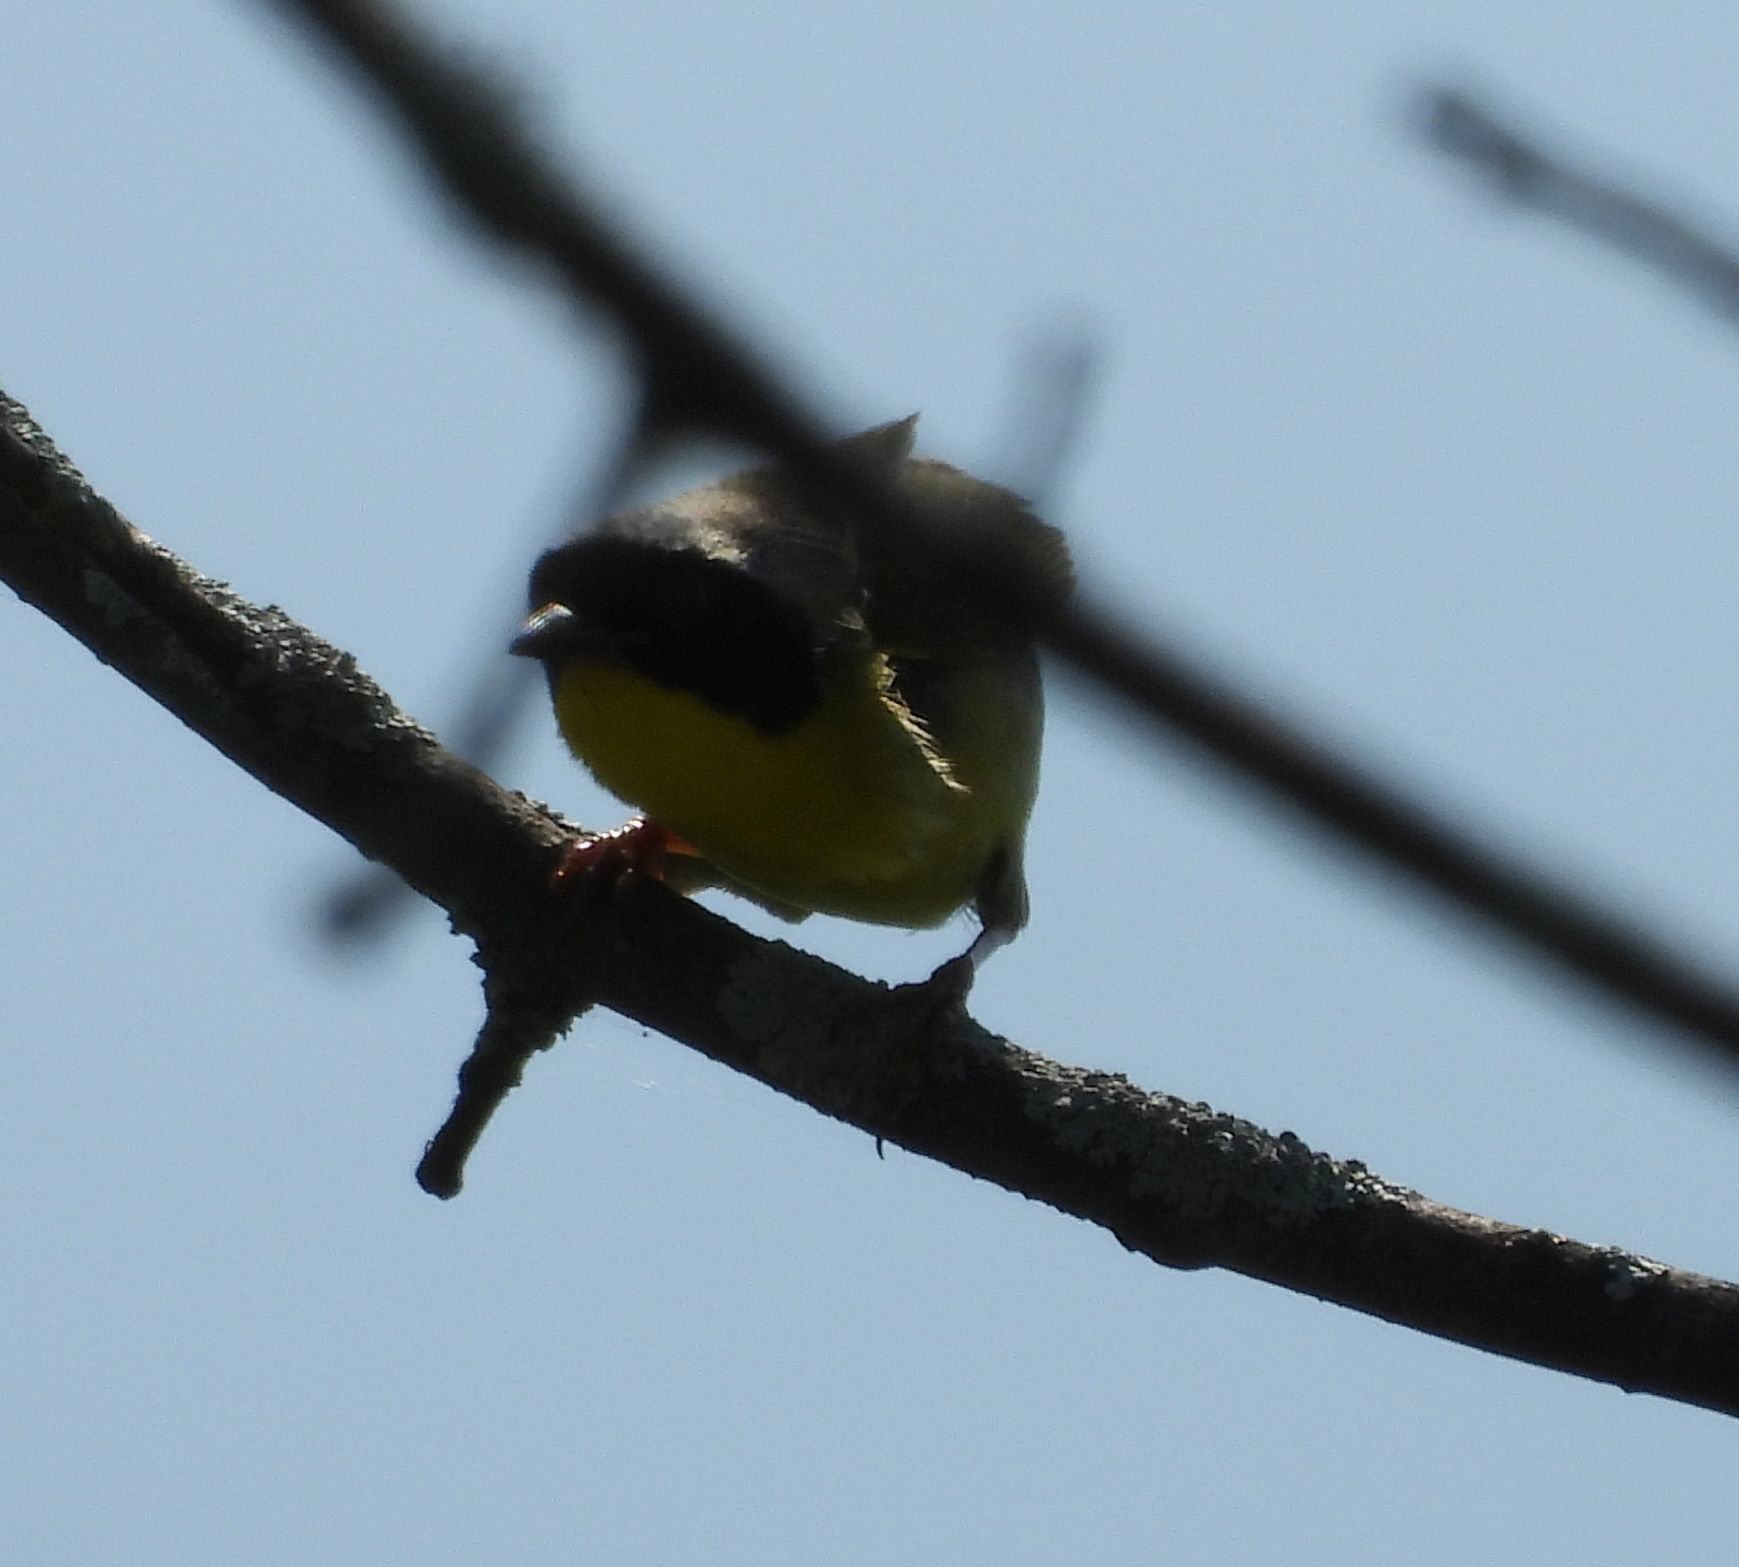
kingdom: Animalia
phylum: Chordata
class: Aves
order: Passeriformes
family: Parulidae
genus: Geothlypis
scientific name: Geothlypis trichas
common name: Common yellowthroat
